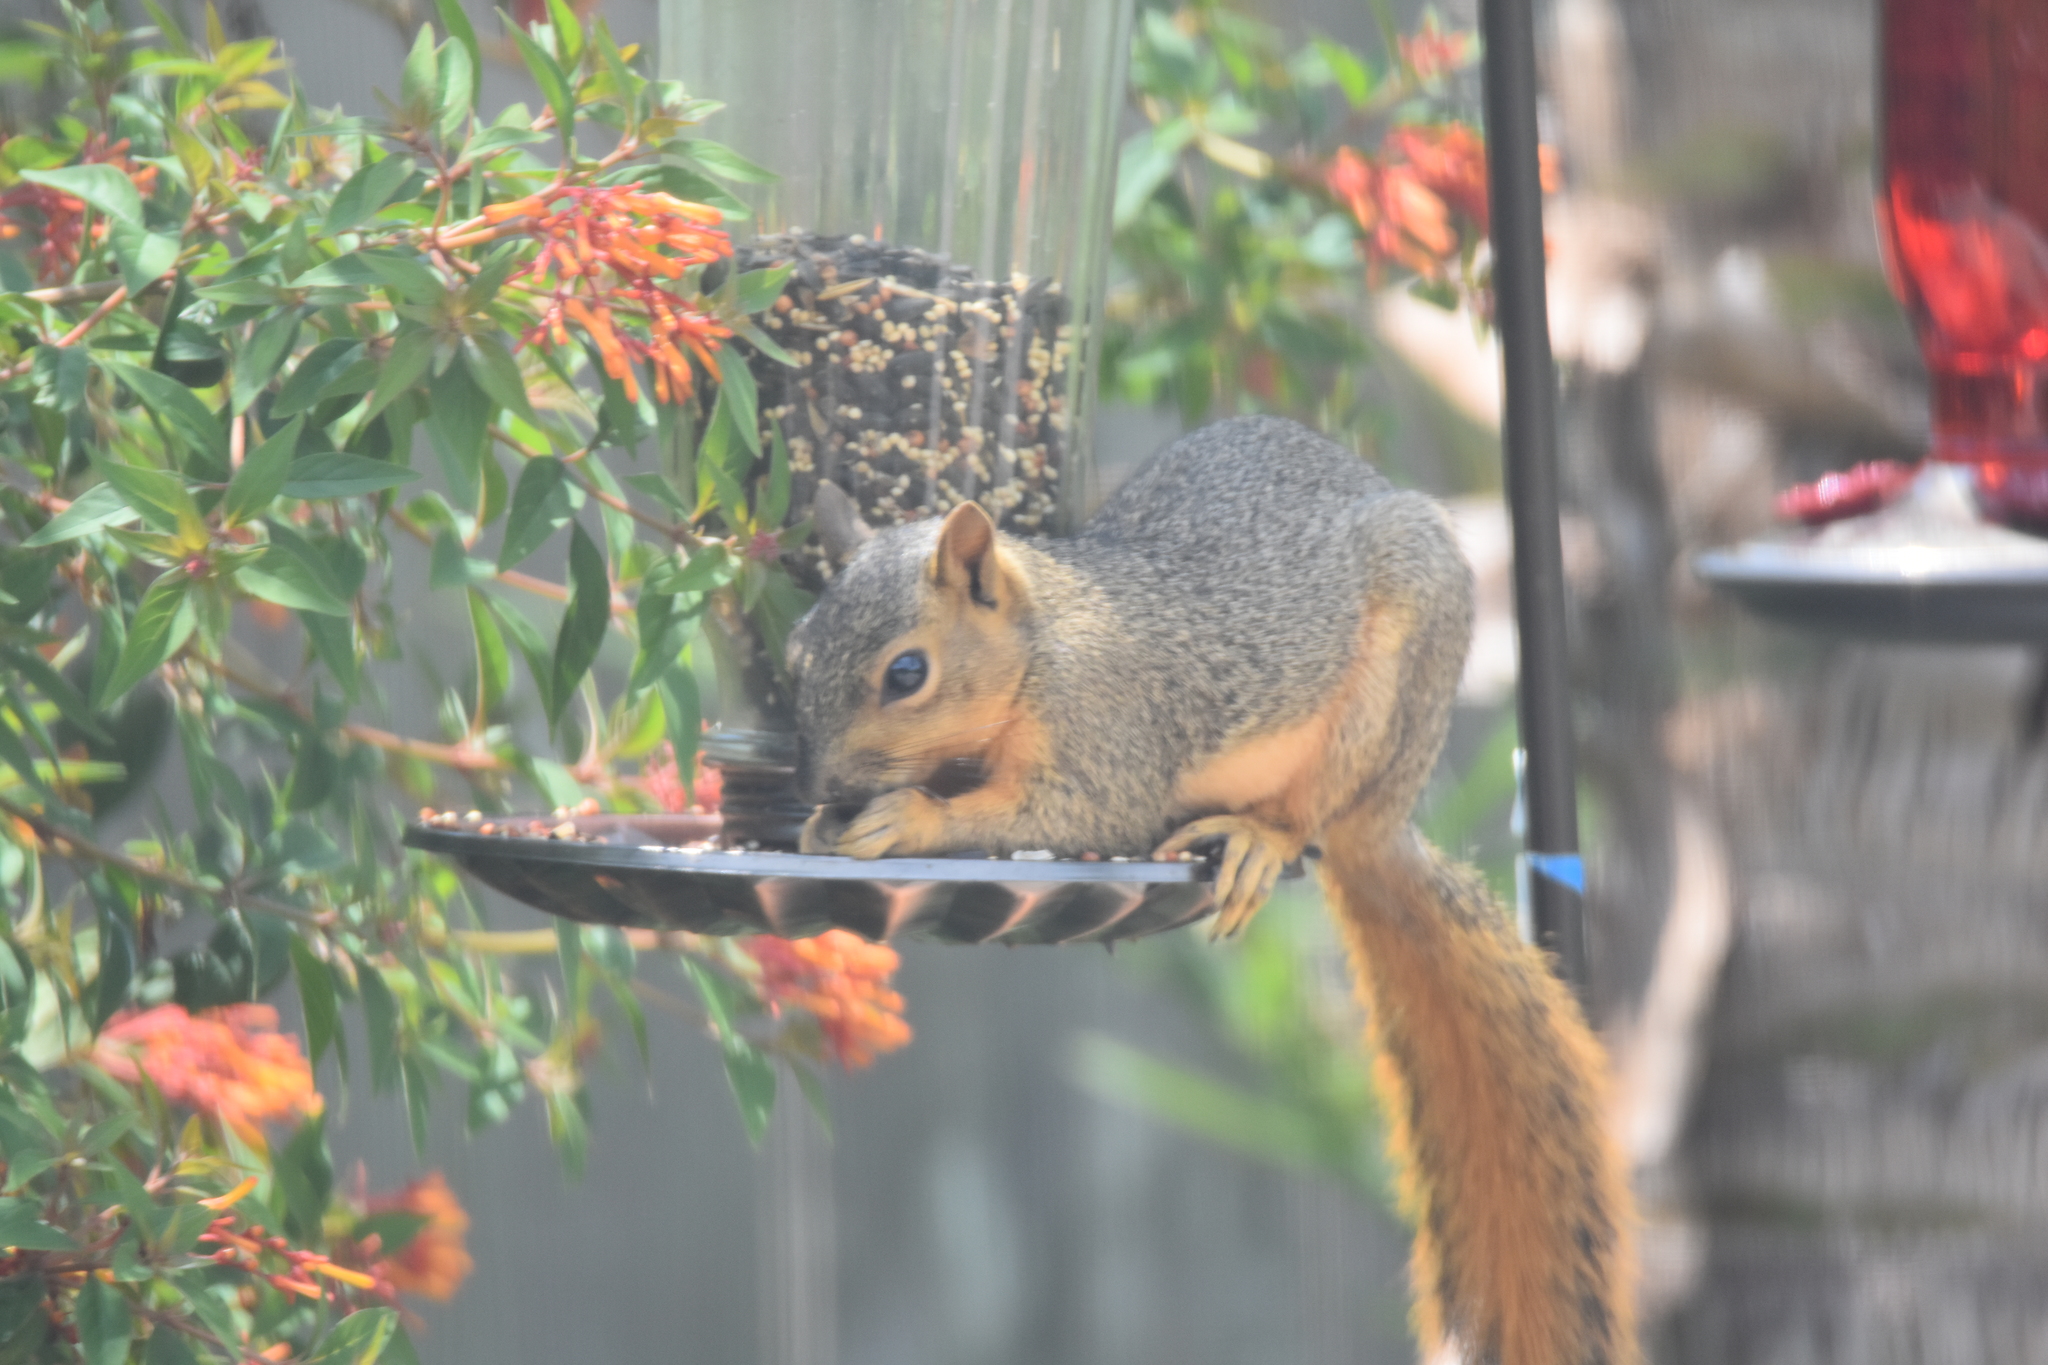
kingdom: Animalia
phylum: Chordata
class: Mammalia
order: Rodentia
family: Sciuridae
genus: Sciurus
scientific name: Sciurus niger
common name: Fox squirrel
